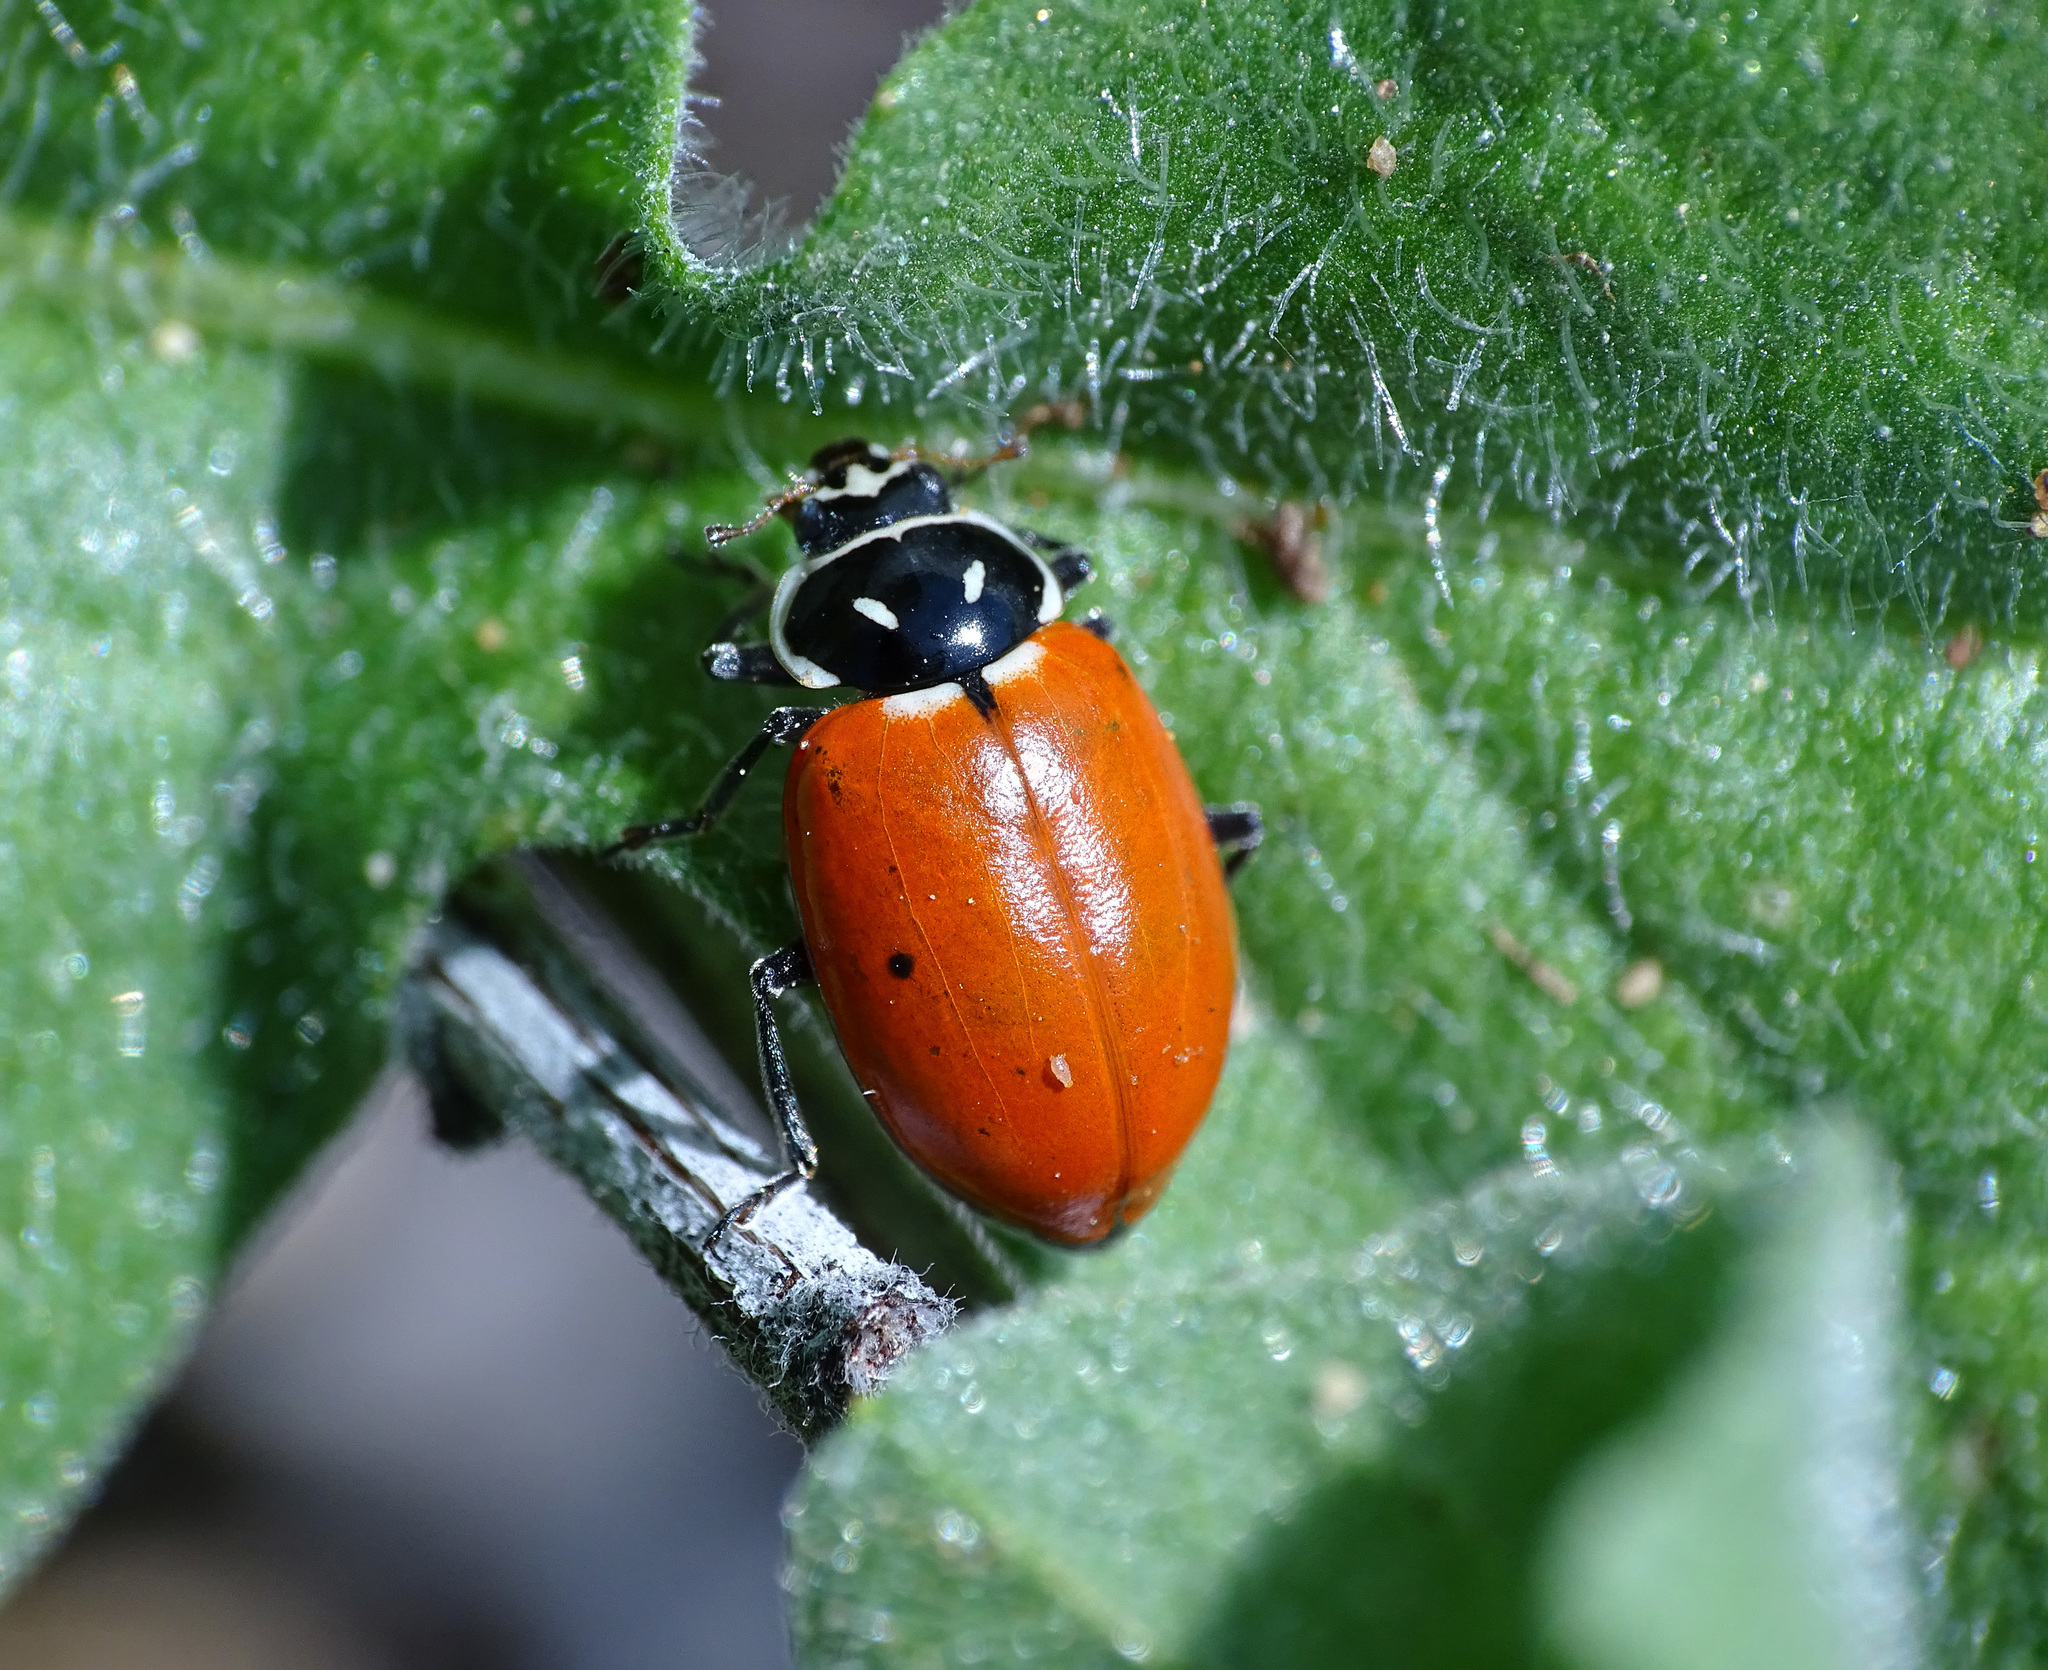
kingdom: Animalia
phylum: Arthropoda
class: Insecta
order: Coleoptera
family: Coccinellidae
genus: Hippodamia
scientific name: Hippodamia convergens
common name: Convergent lady beetle
